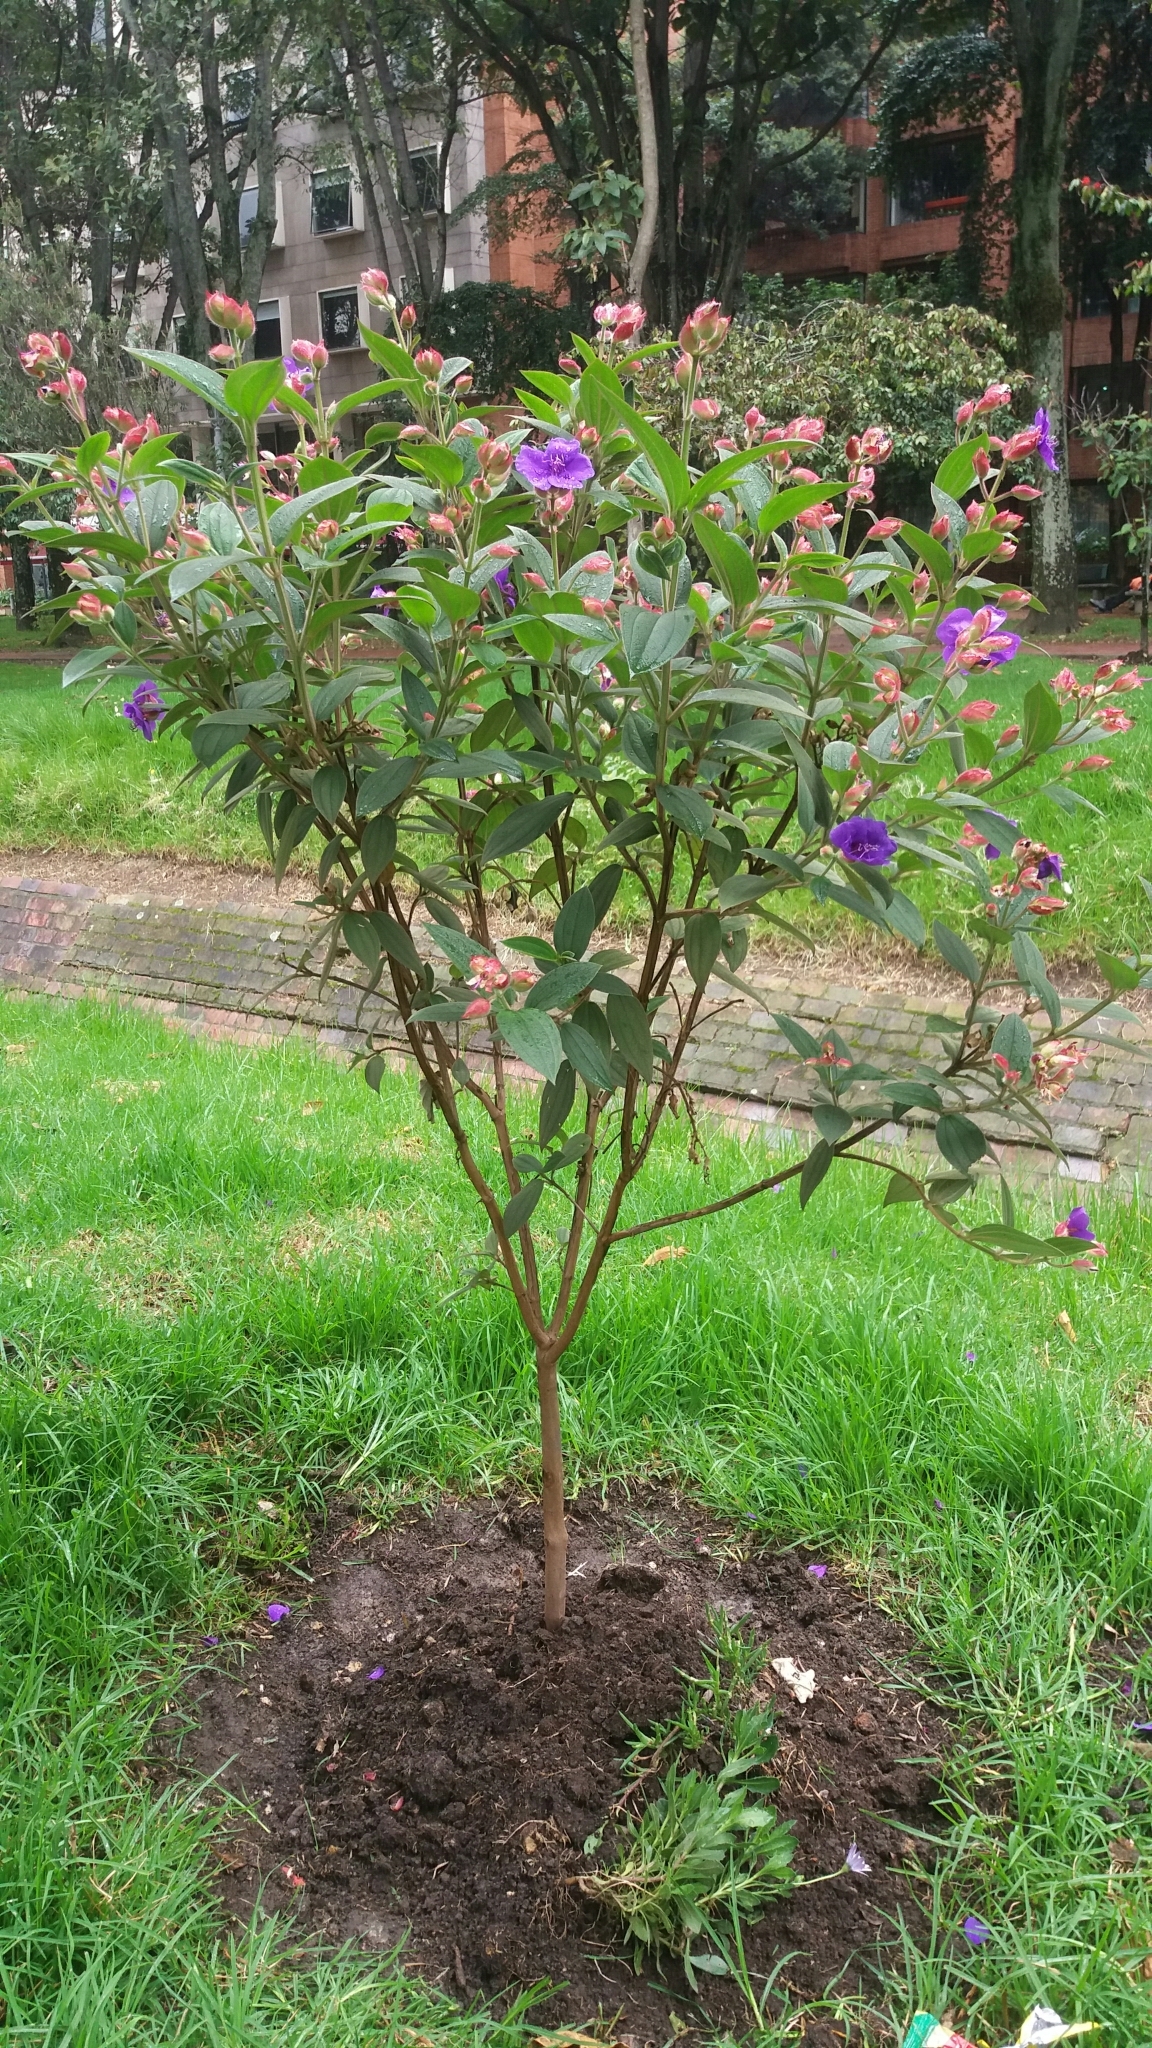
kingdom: Plantae
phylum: Tracheophyta
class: Magnoliopsida
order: Myrtales
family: Melastomataceae
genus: Pleroma
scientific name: Pleroma urvilleanum
